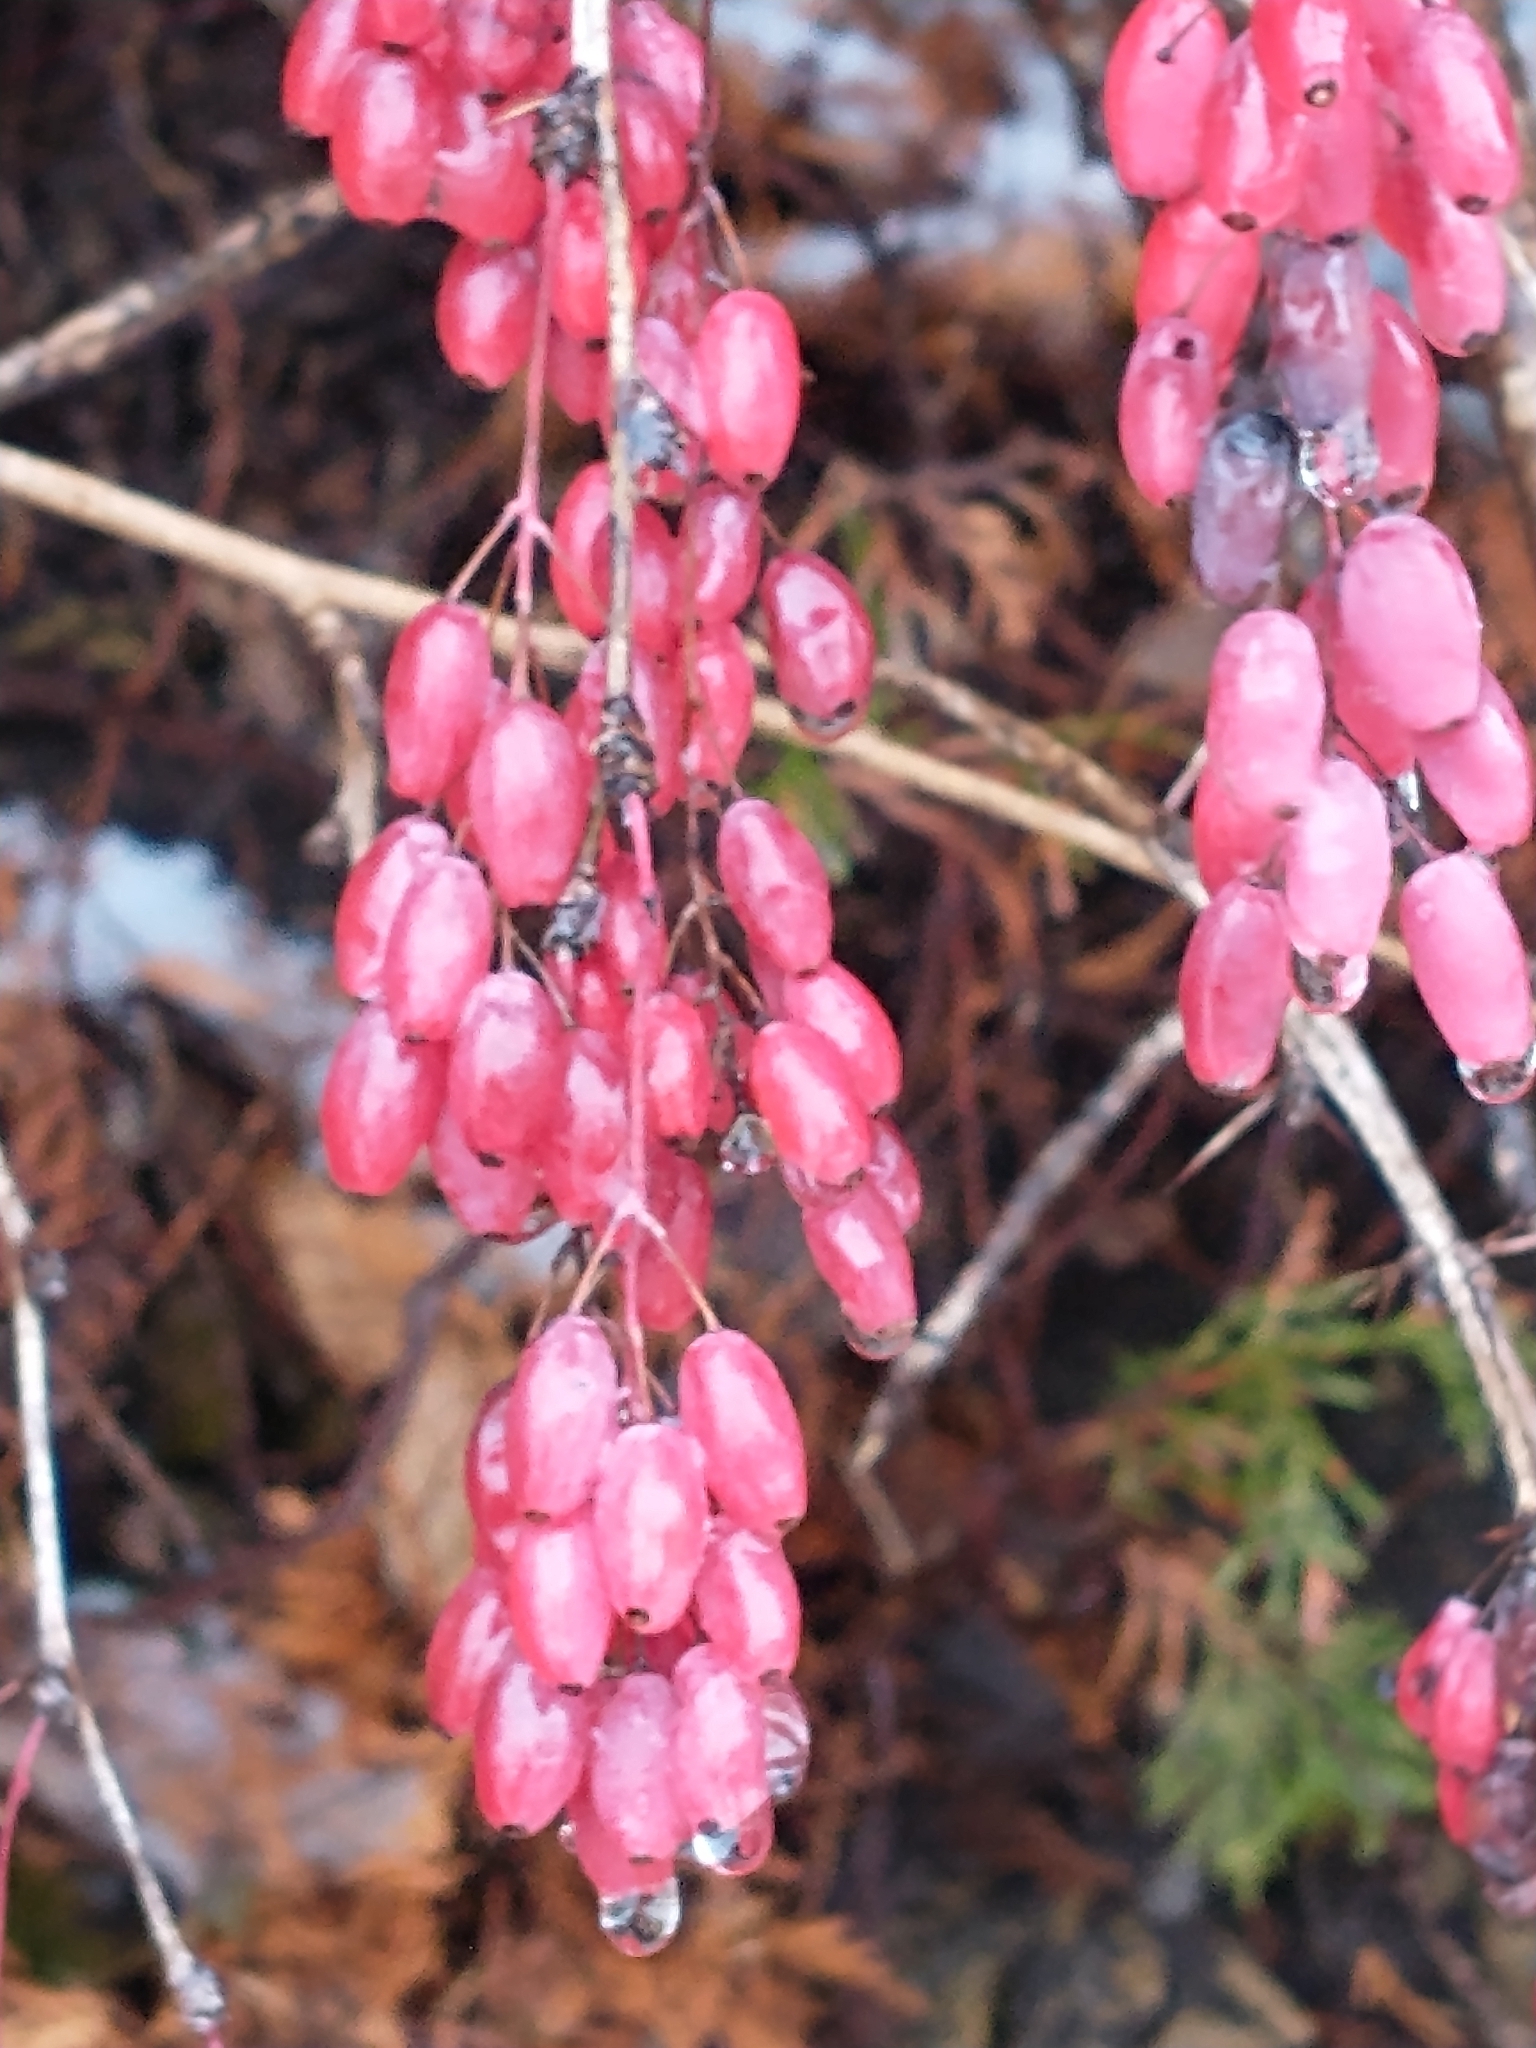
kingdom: Plantae
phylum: Tracheophyta
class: Magnoliopsida
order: Ranunculales
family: Berberidaceae
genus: Berberis
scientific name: Berberis vulgaris
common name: Barberry
